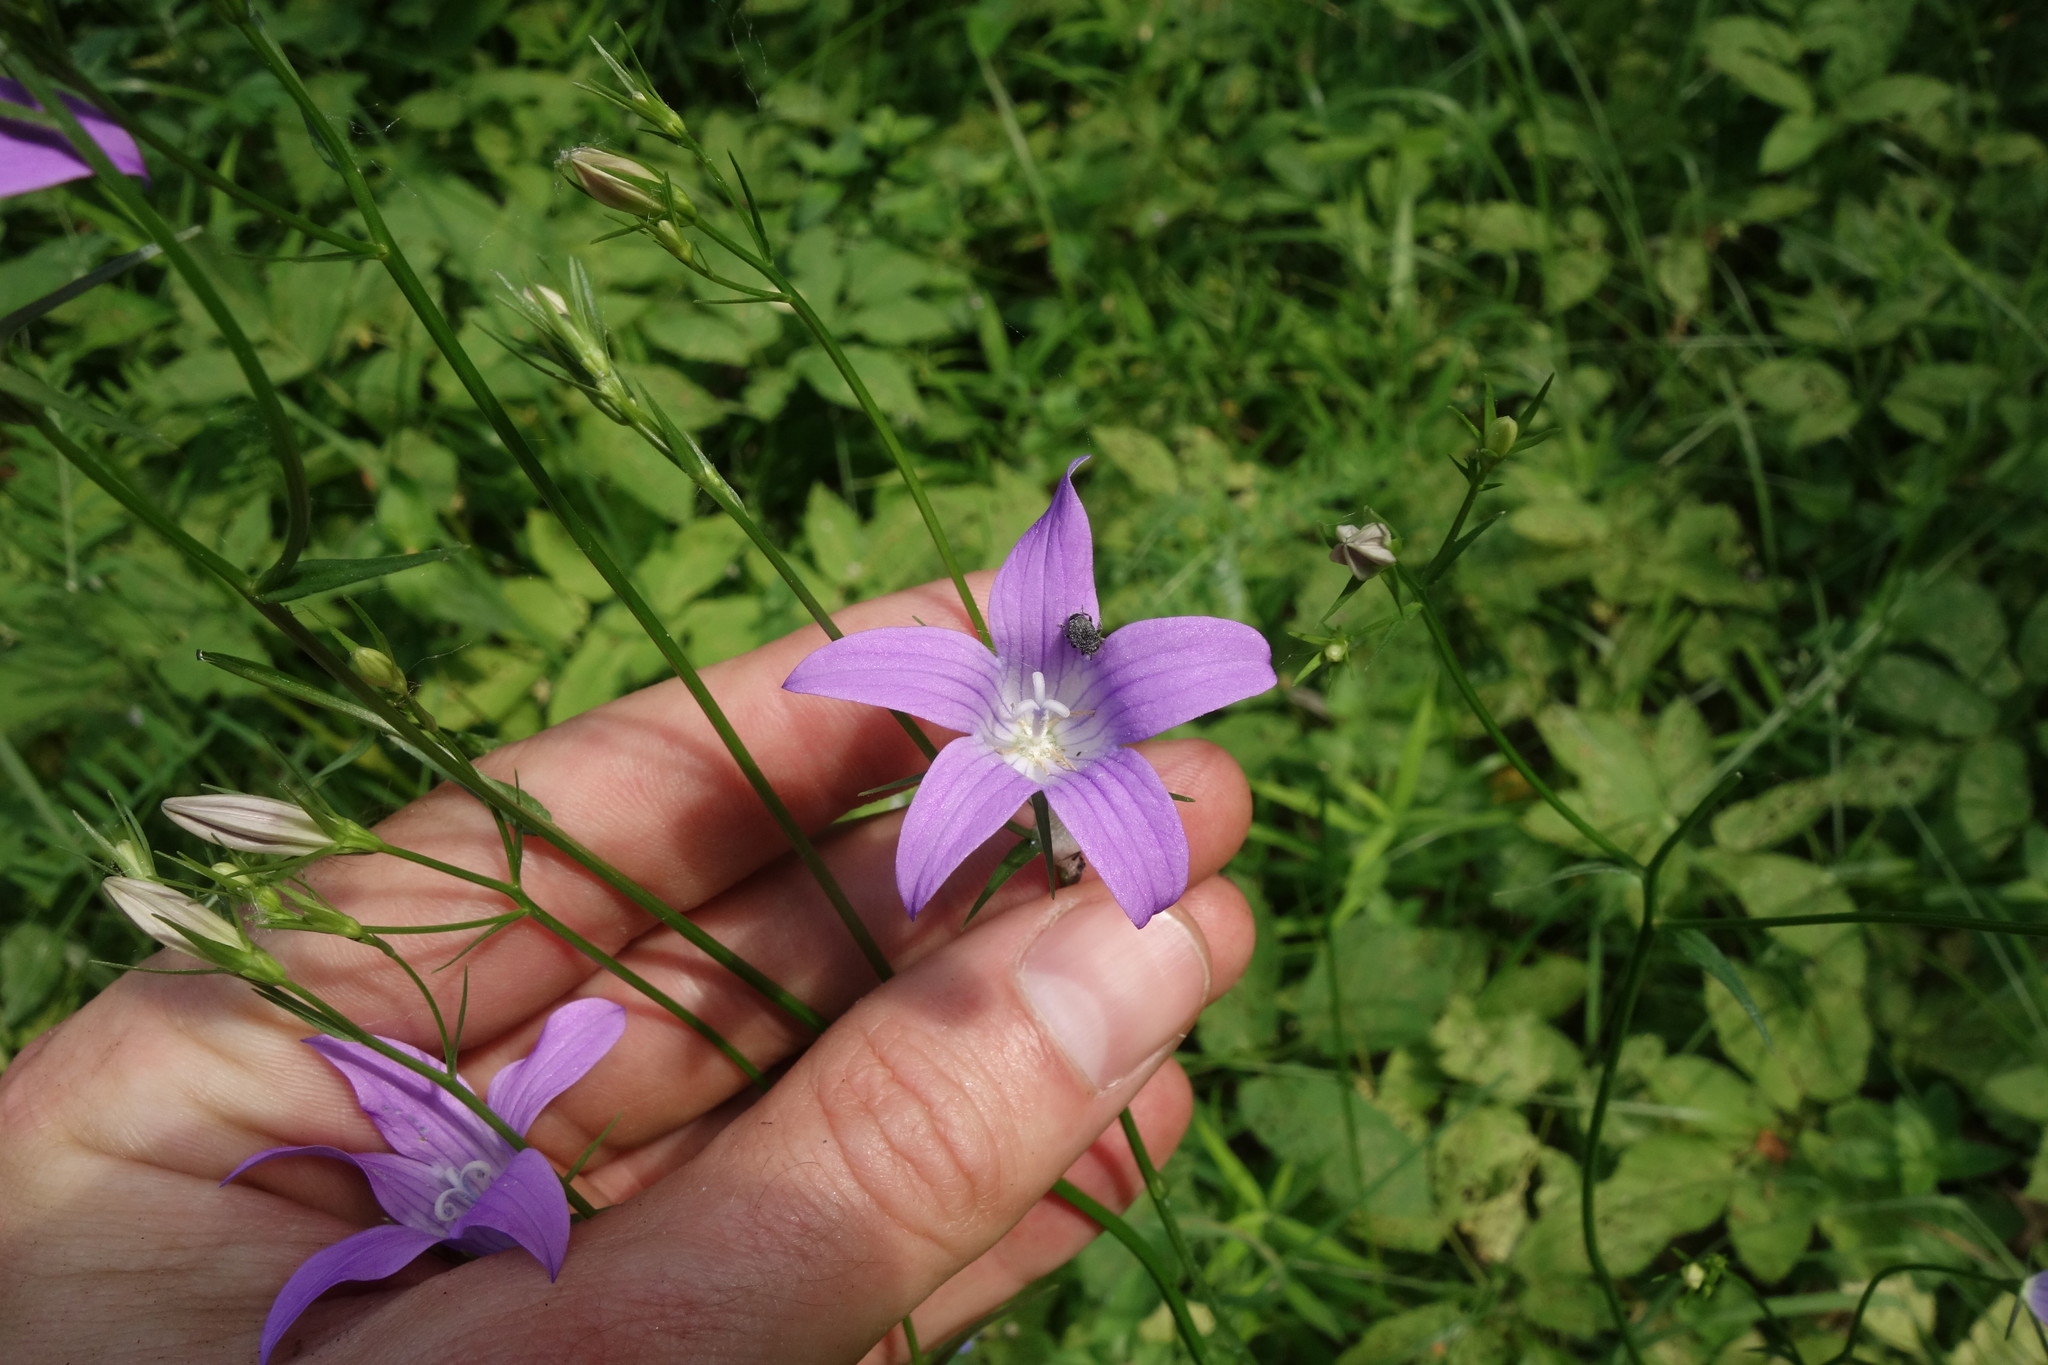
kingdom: Plantae
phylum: Tracheophyta
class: Magnoliopsida
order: Asterales
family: Campanulaceae
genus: Campanula
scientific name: Campanula patula
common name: Spreading bellflower
